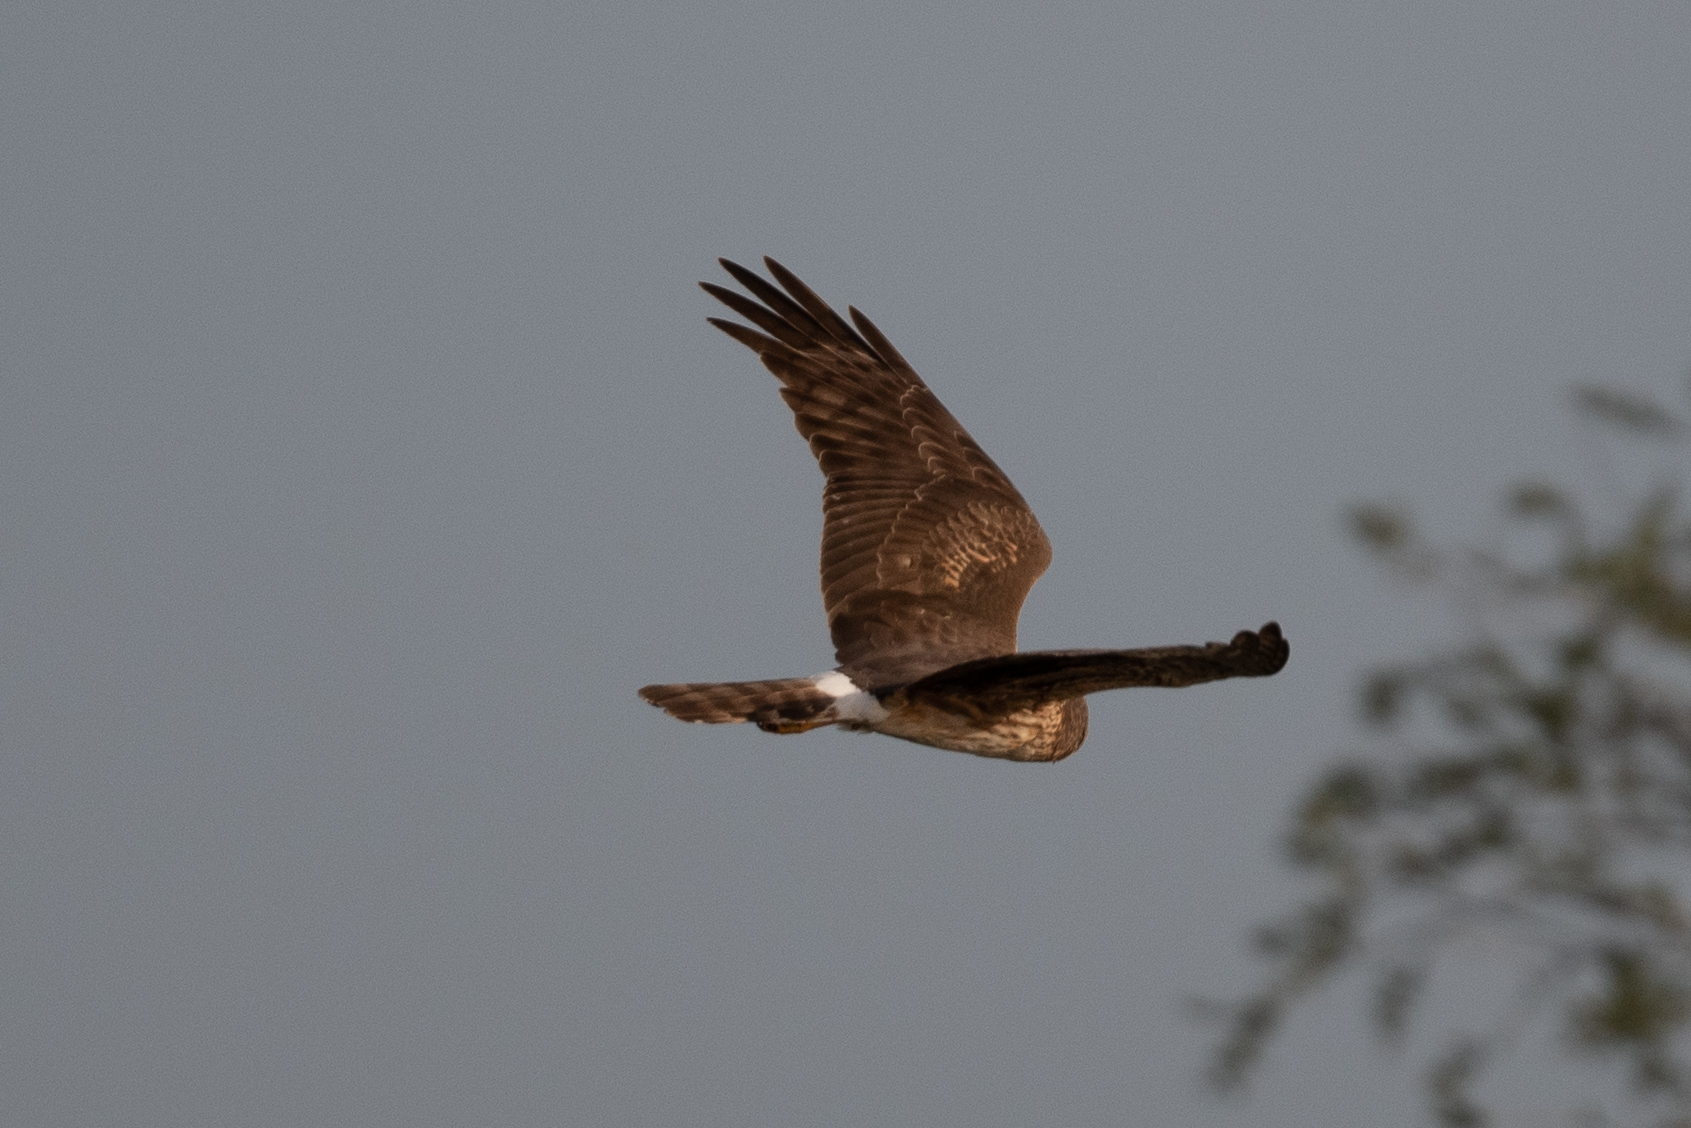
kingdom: Animalia
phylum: Chordata
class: Aves
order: Accipitriformes
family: Accipitridae
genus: Circus
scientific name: Circus cyaneus
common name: Hen harrier
